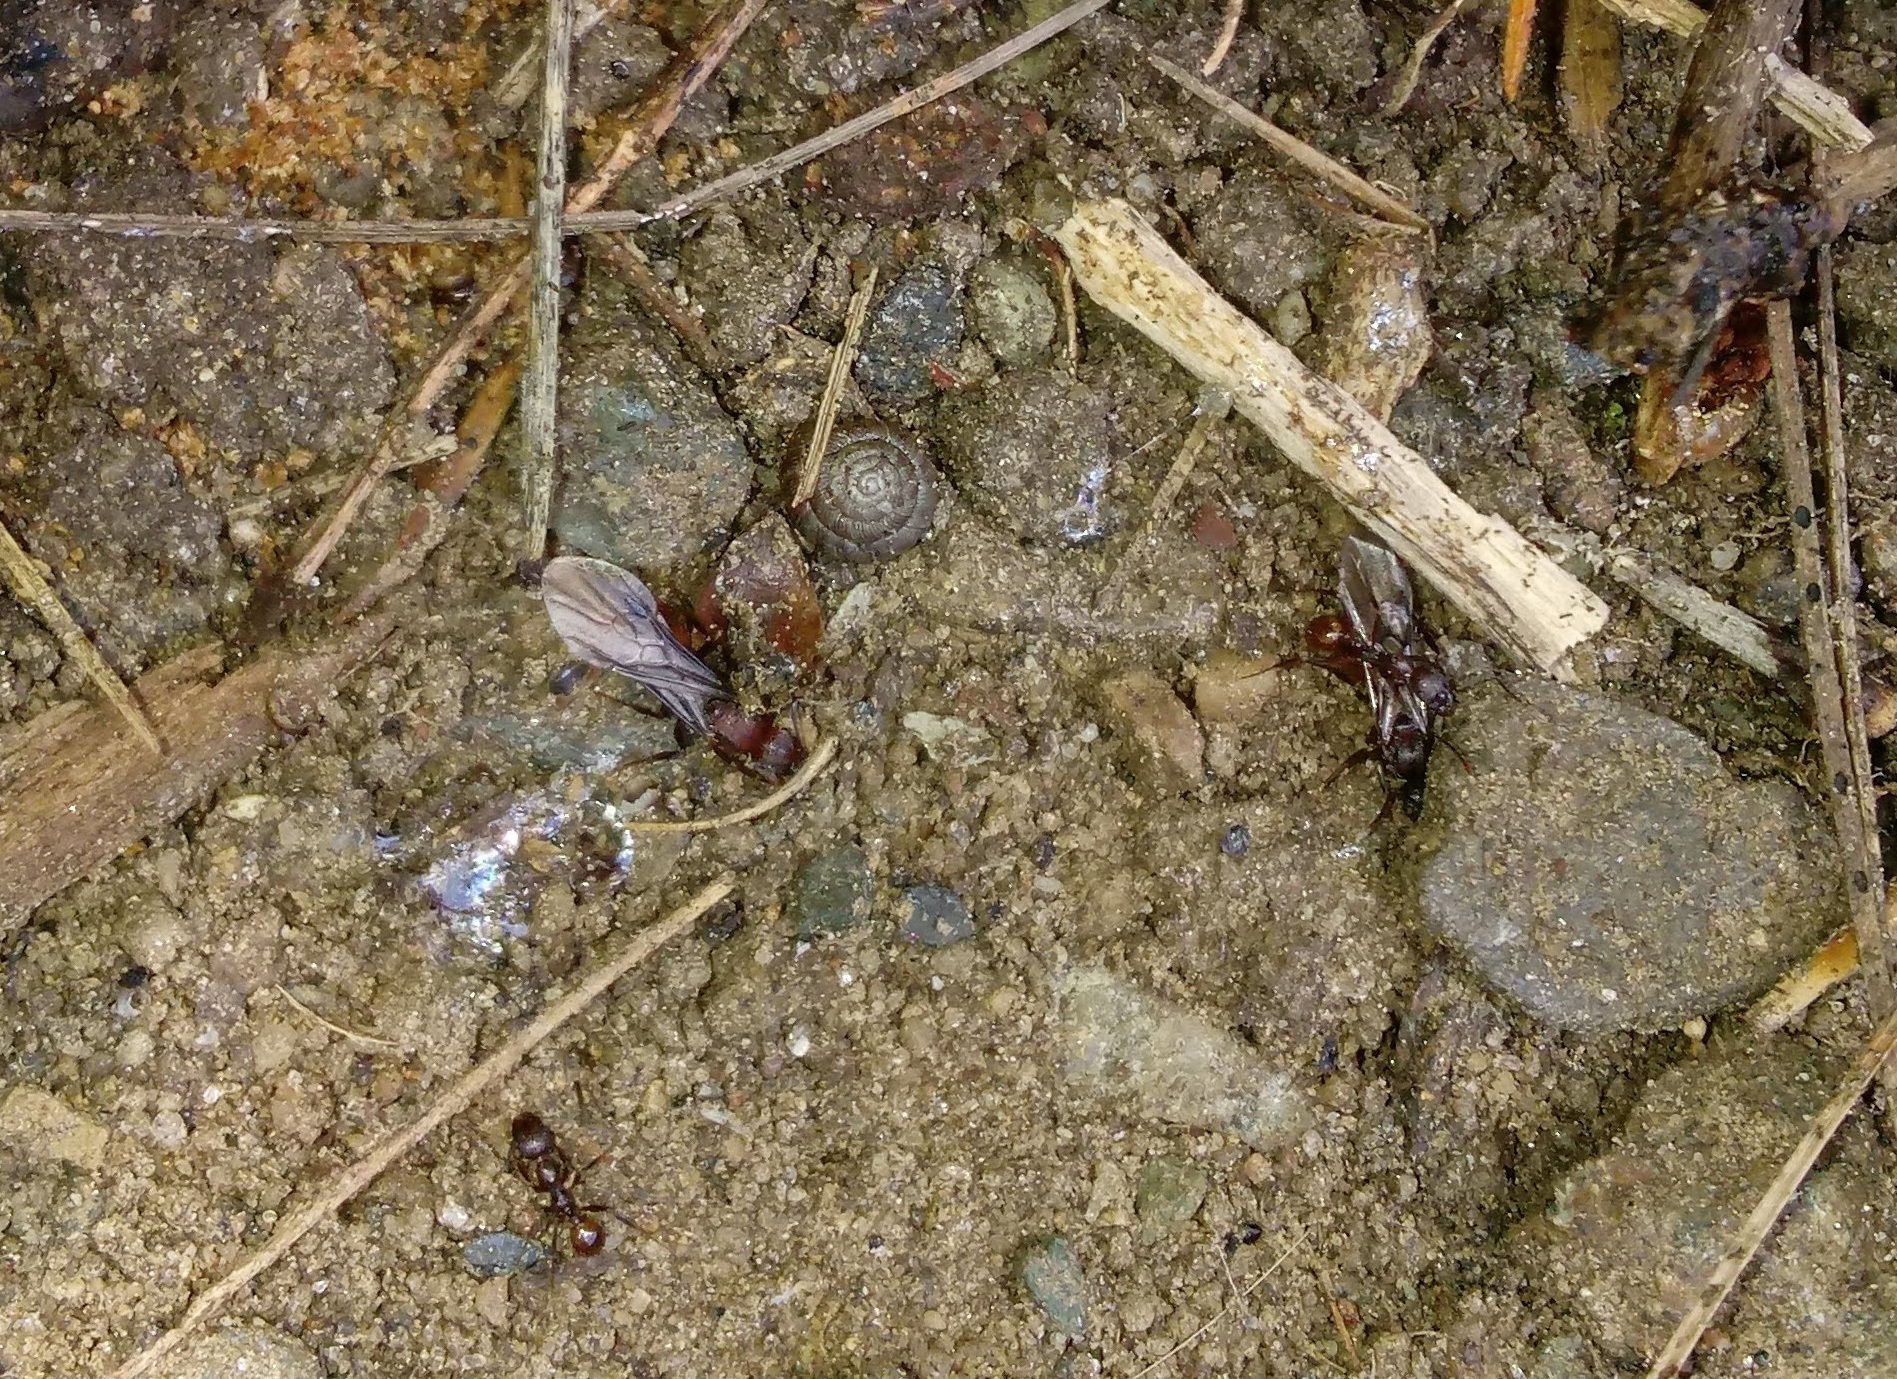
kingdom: Animalia
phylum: Arthropoda
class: Insecta
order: Hymenoptera
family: Formicidae
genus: Aphaenogaster
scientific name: Aphaenogaster fulva
